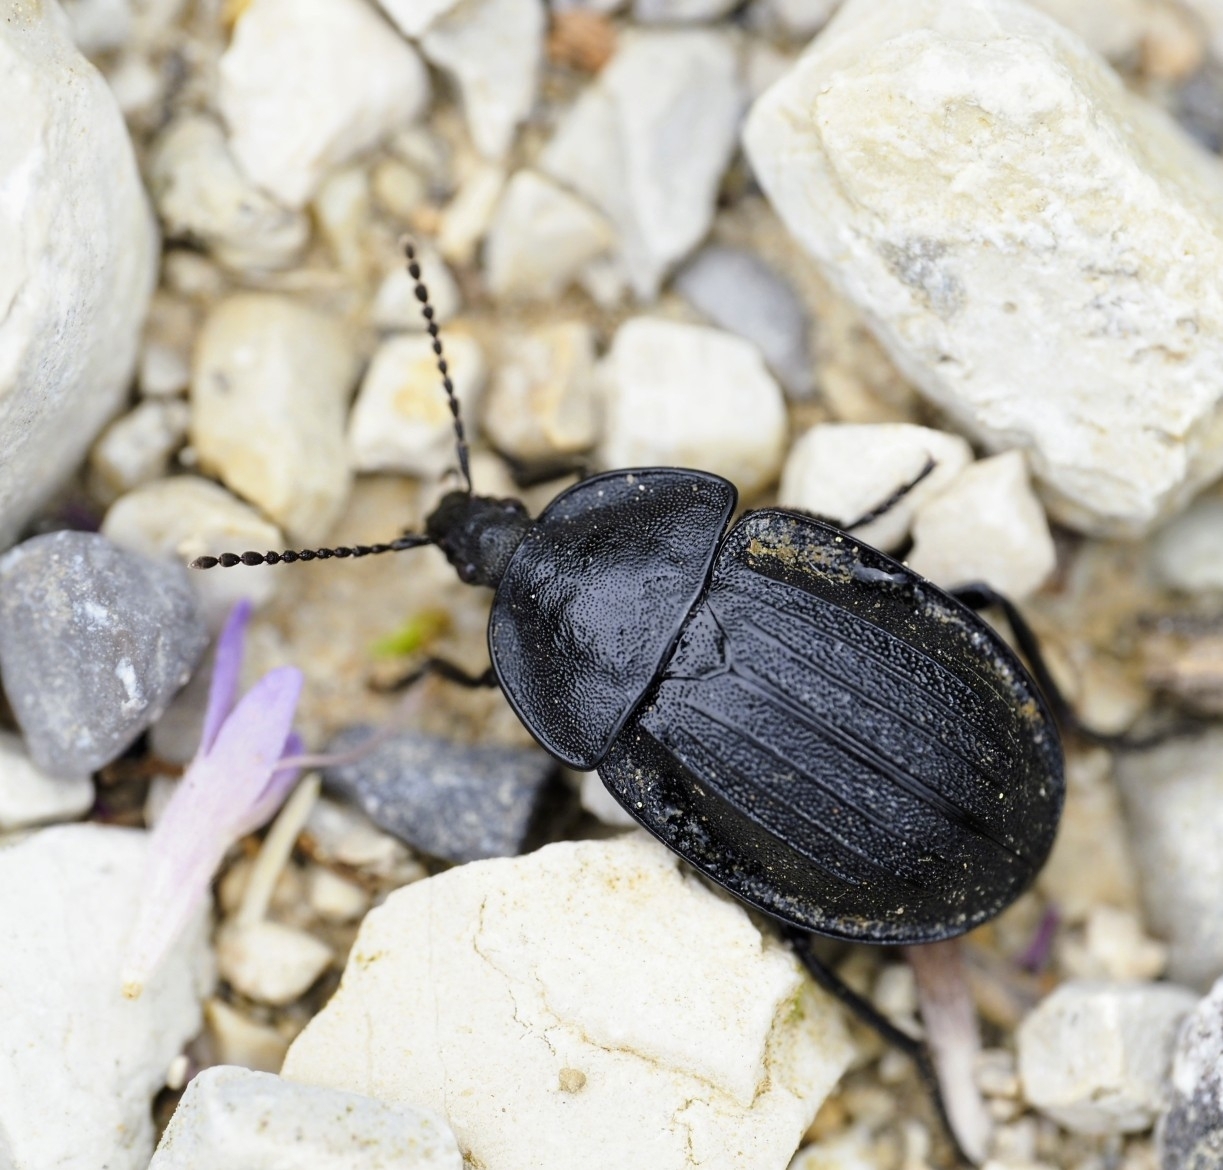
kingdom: Animalia
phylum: Arthropoda
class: Insecta
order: Coleoptera
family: Staphylinidae
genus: Silpha
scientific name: Silpha atrata
